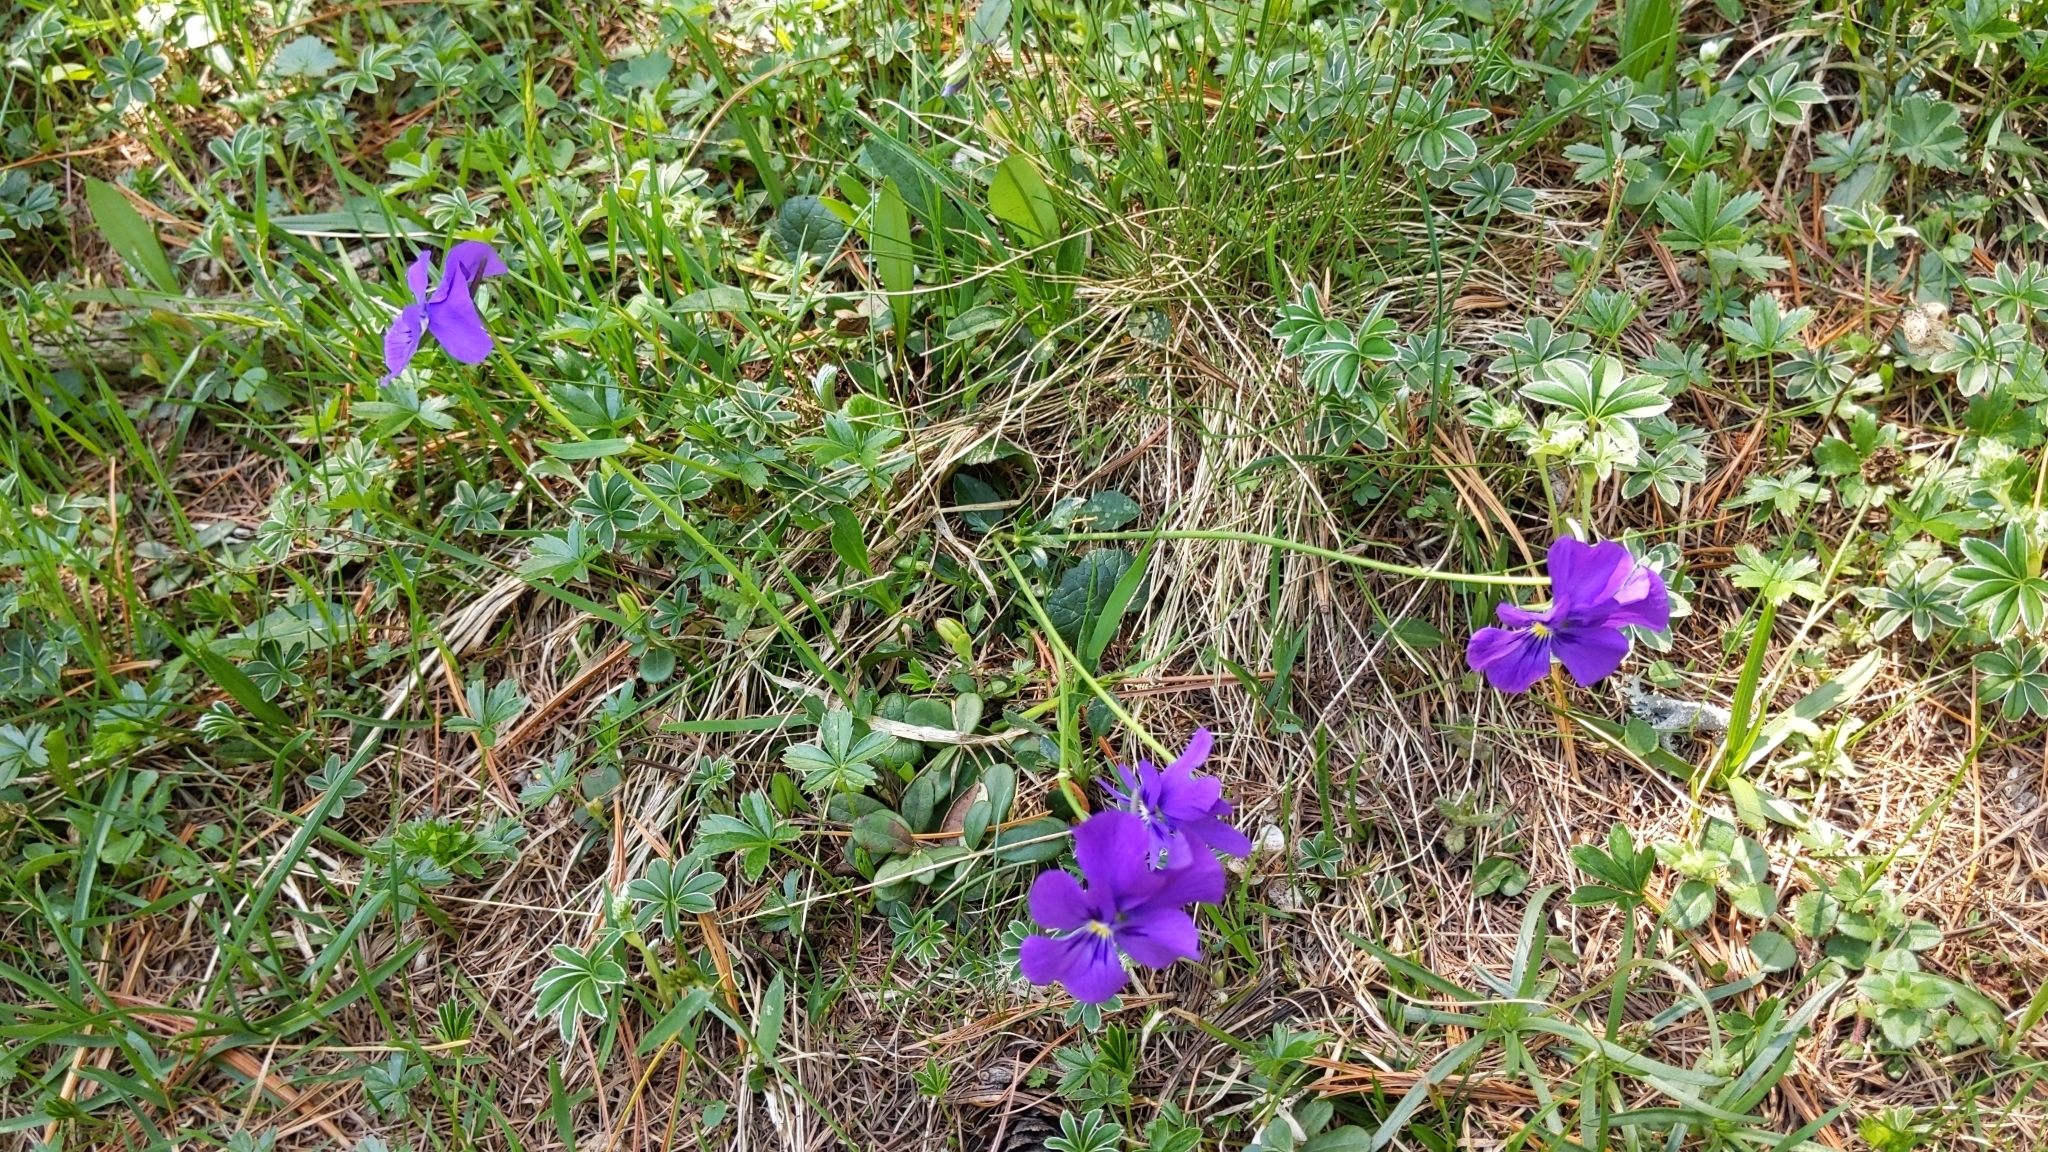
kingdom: Plantae
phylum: Tracheophyta
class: Magnoliopsida
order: Malpighiales
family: Violaceae
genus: Viola
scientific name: Viola calcarata
